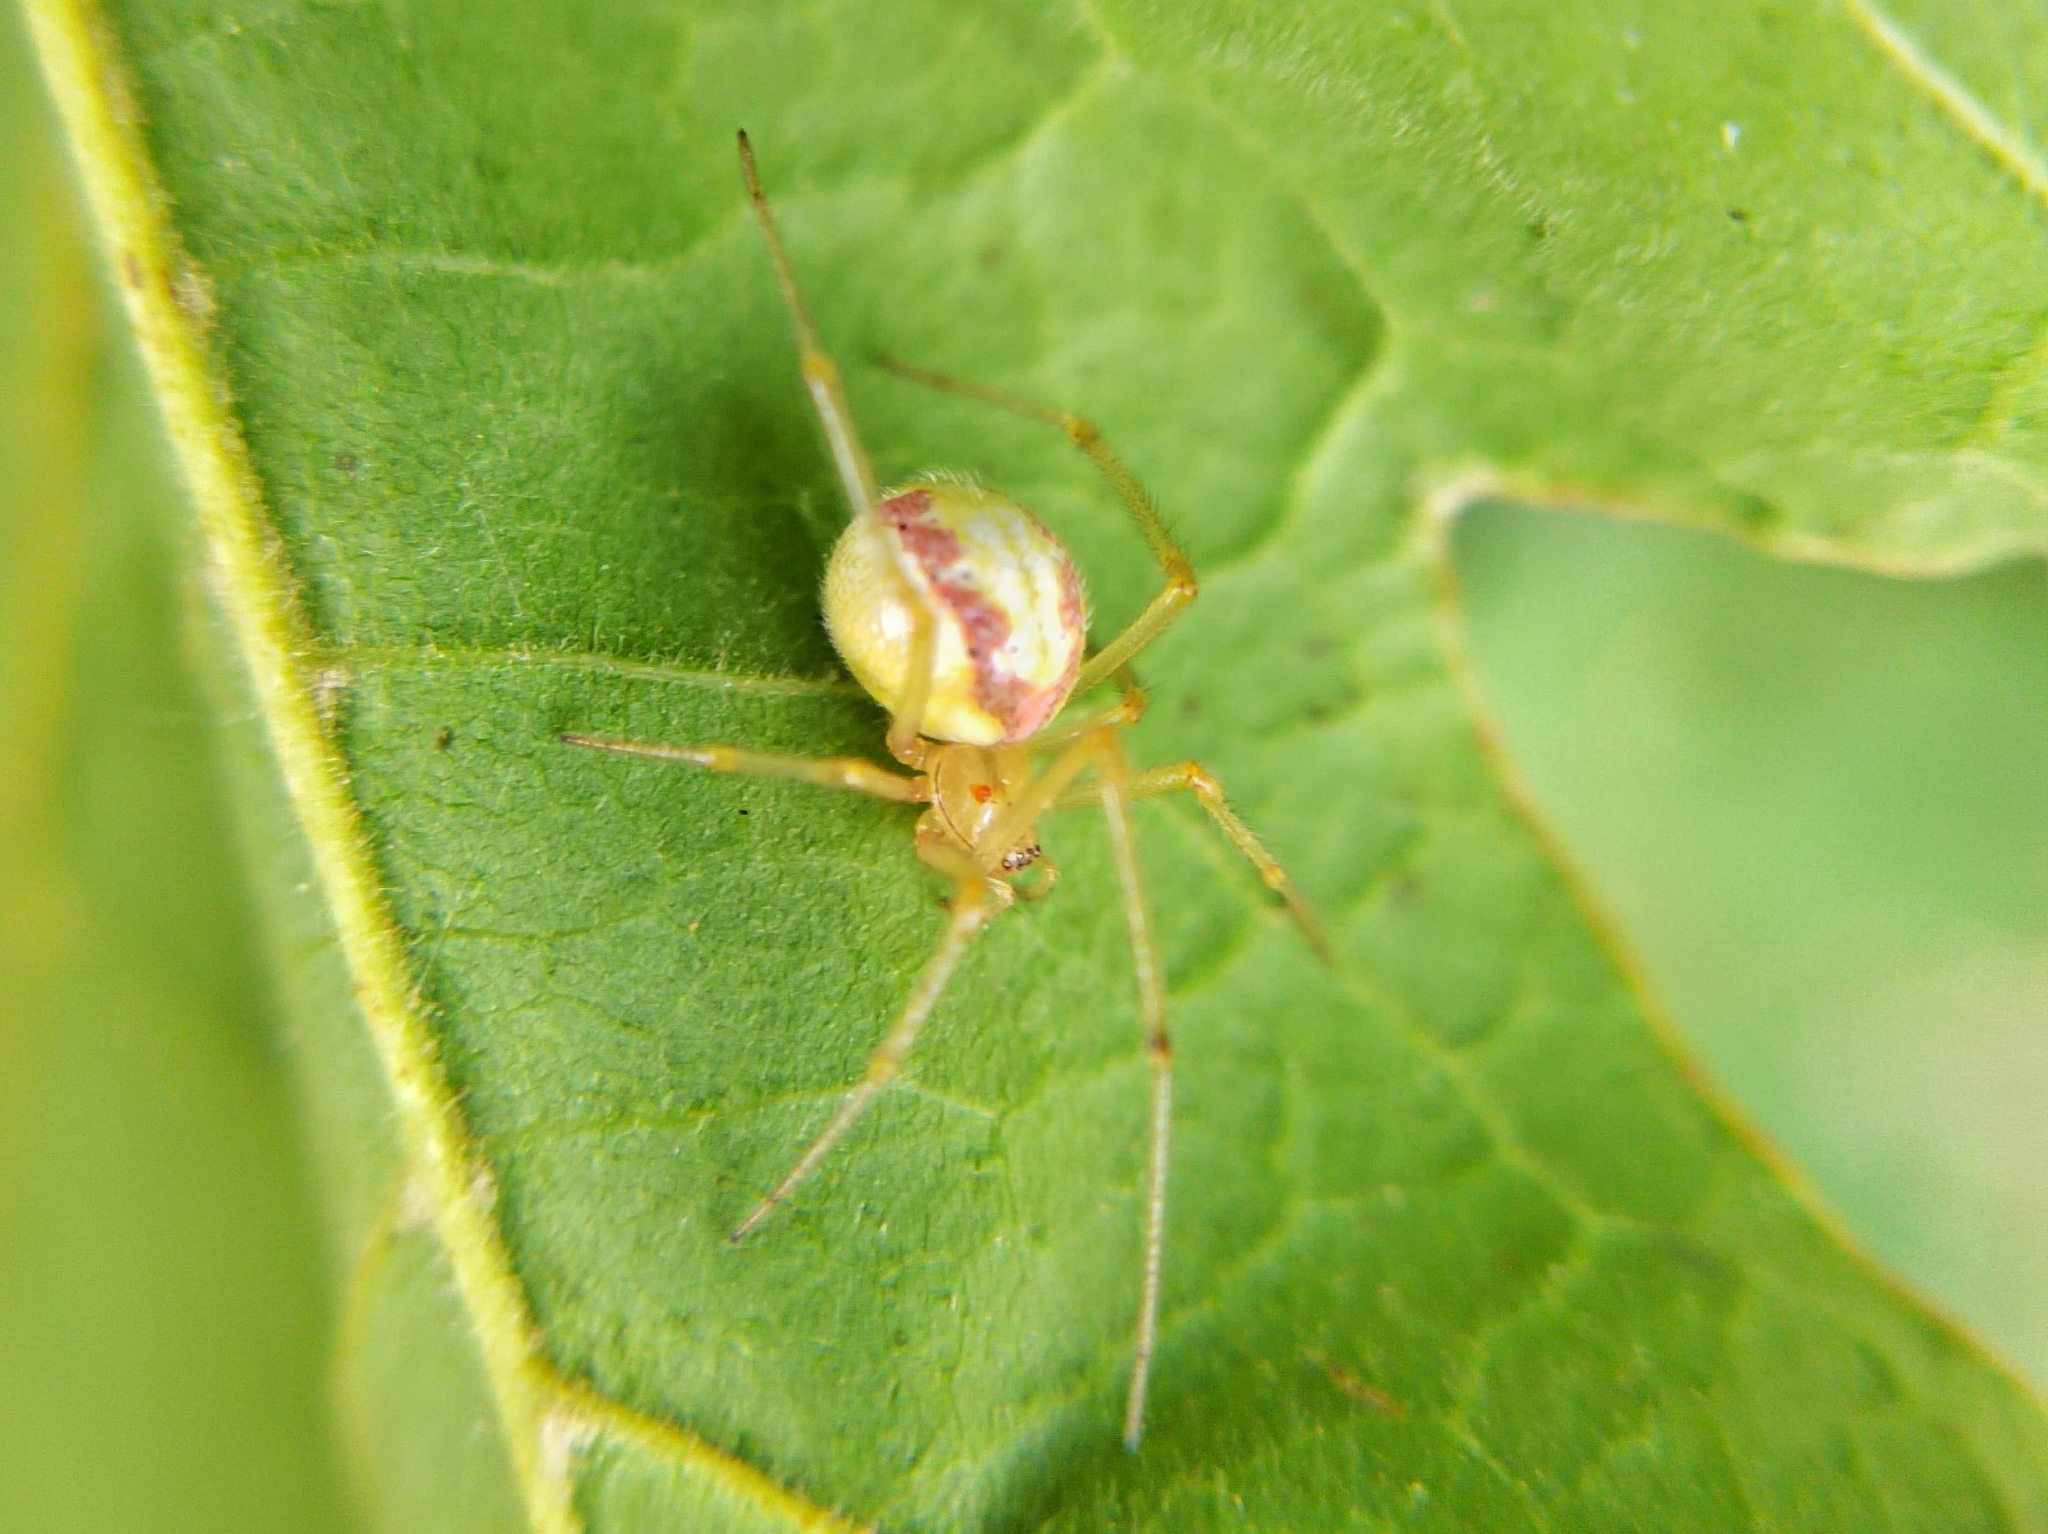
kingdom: Animalia
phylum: Arthropoda
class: Arachnida
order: Araneae
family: Theridiidae
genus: Enoplognatha
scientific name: Enoplognatha
